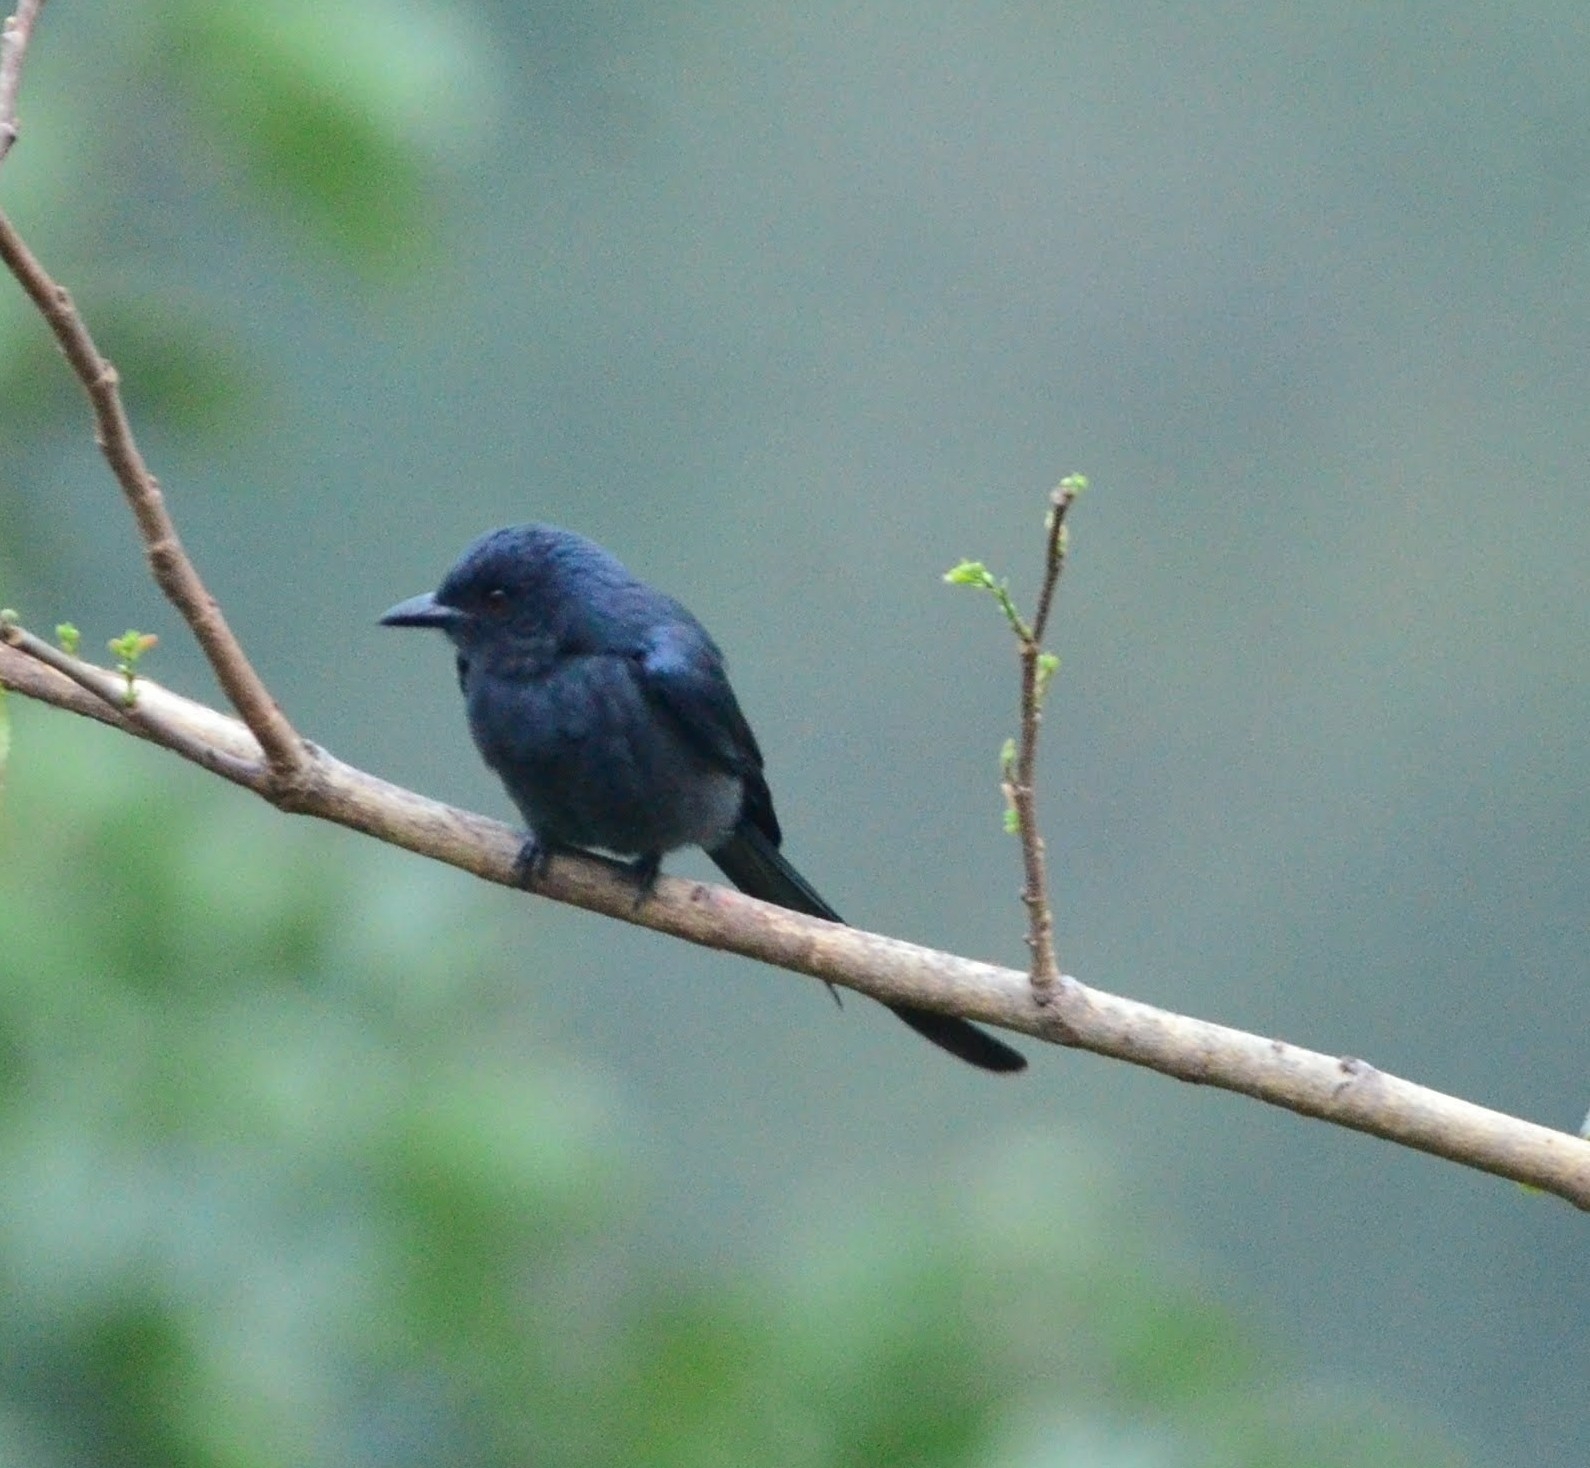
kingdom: Animalia
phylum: Chordata
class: Aves
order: Passeriformes
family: Dicruridae
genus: Dicrurus
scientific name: Dicrurus leucophaeus
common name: Ashy drongo
